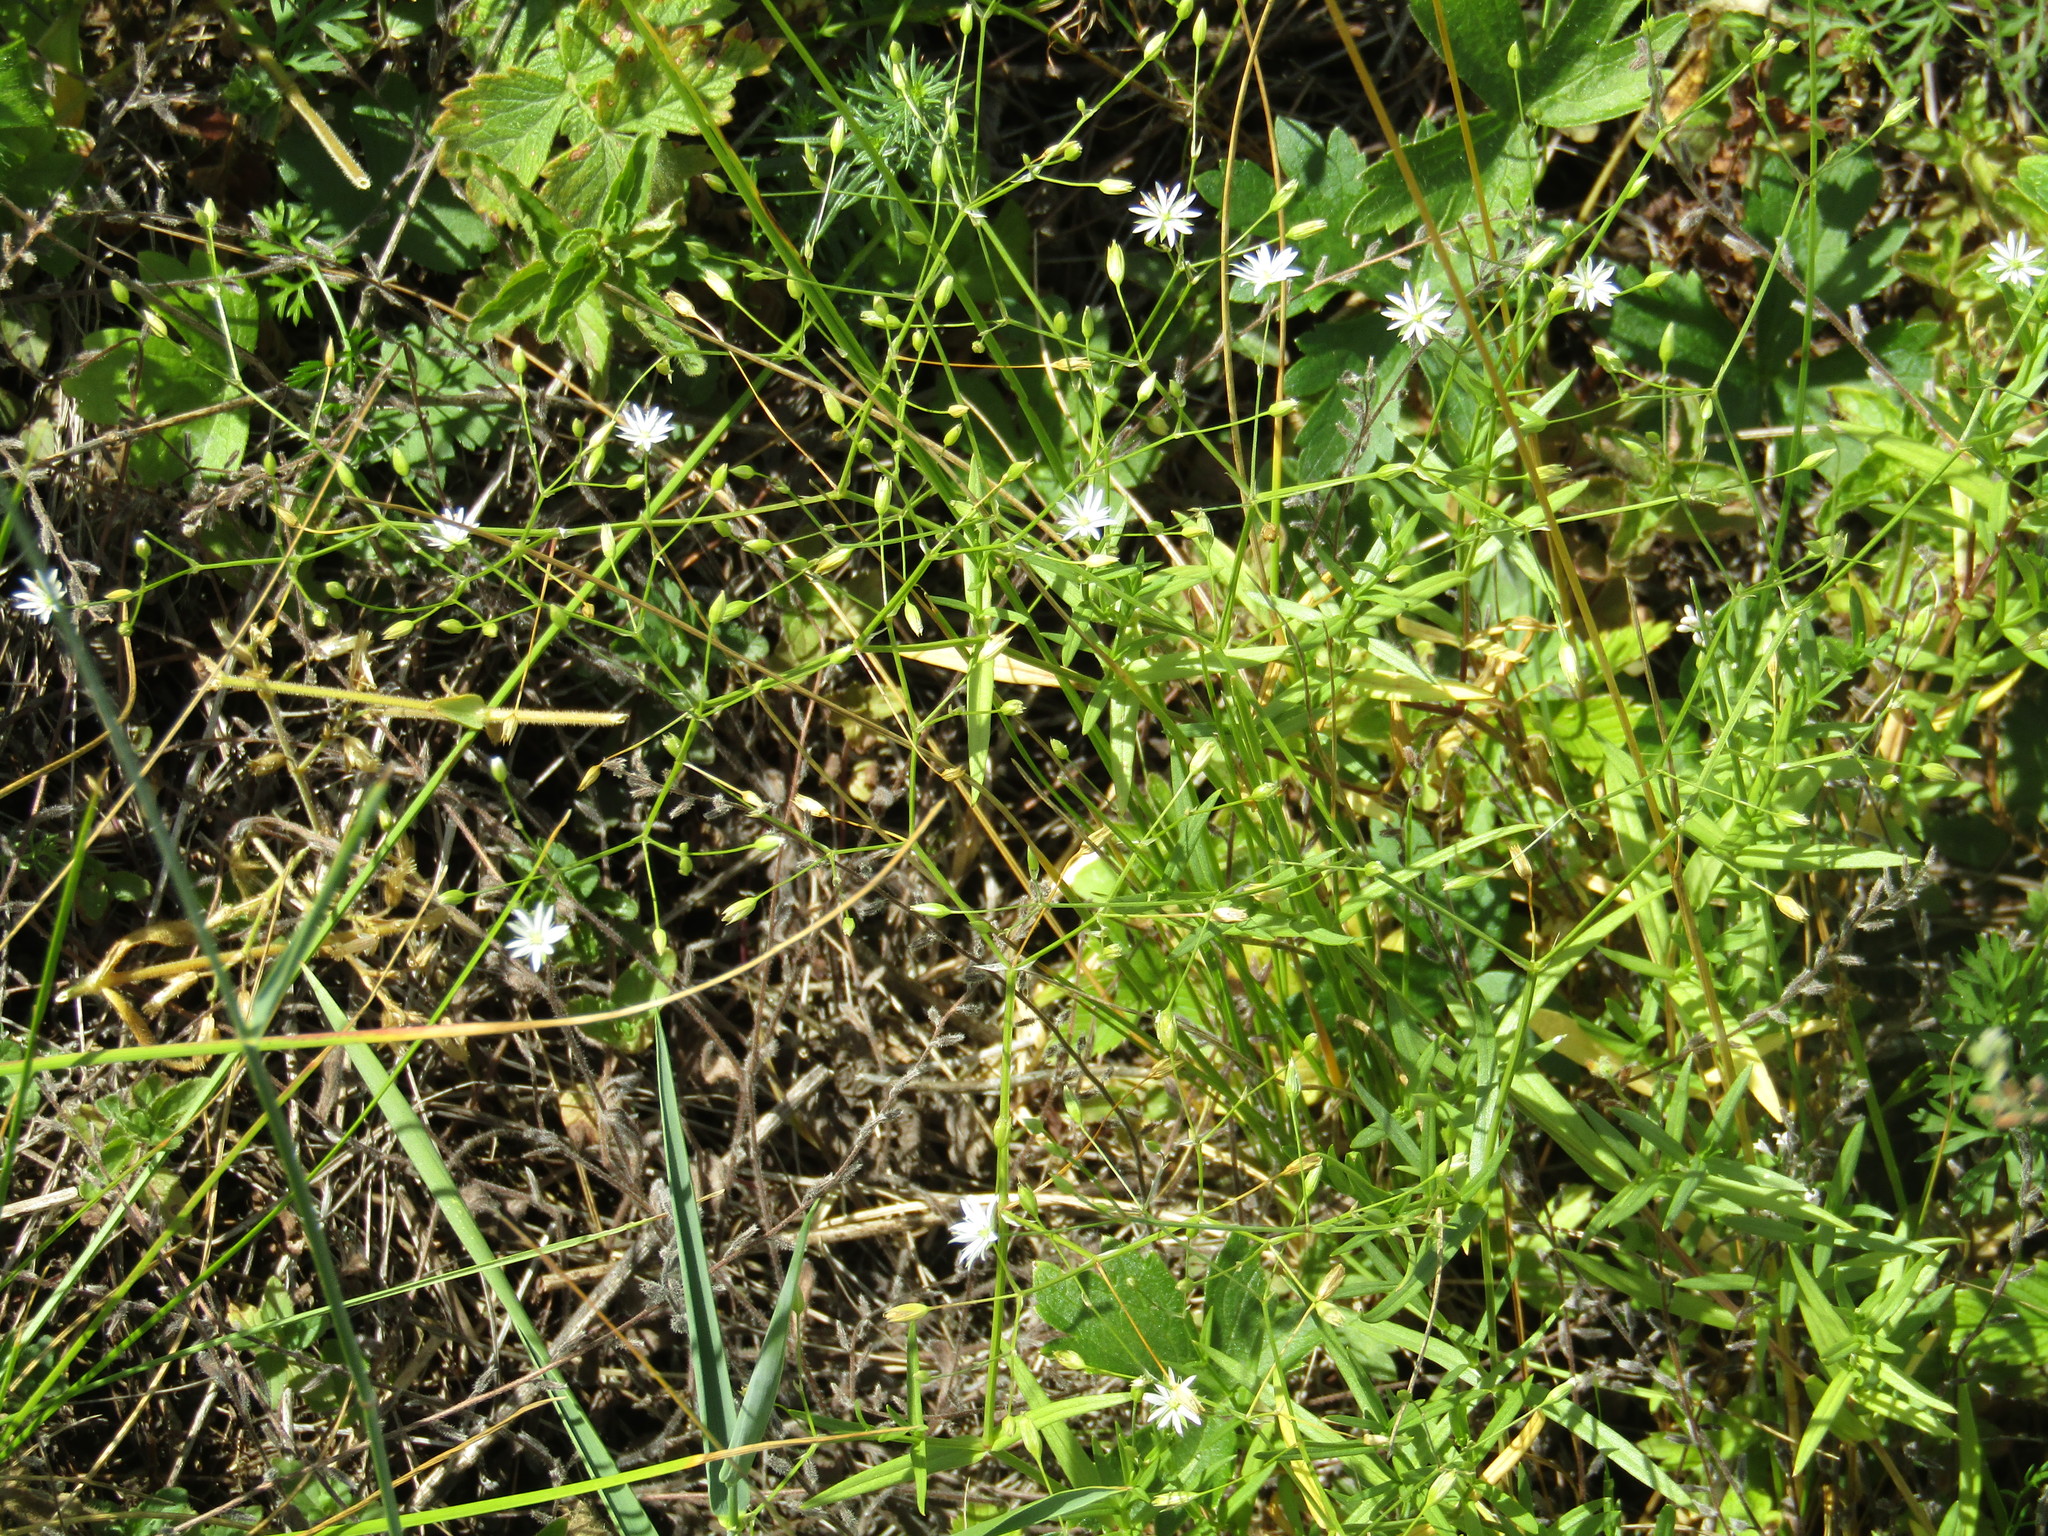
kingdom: Plantae
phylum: Tracheophyta
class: Magnoliopsida
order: Caryophyllales
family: Caryophyllaceae
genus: Stellaria
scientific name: Stellaria graminea
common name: Grass-like starwort
